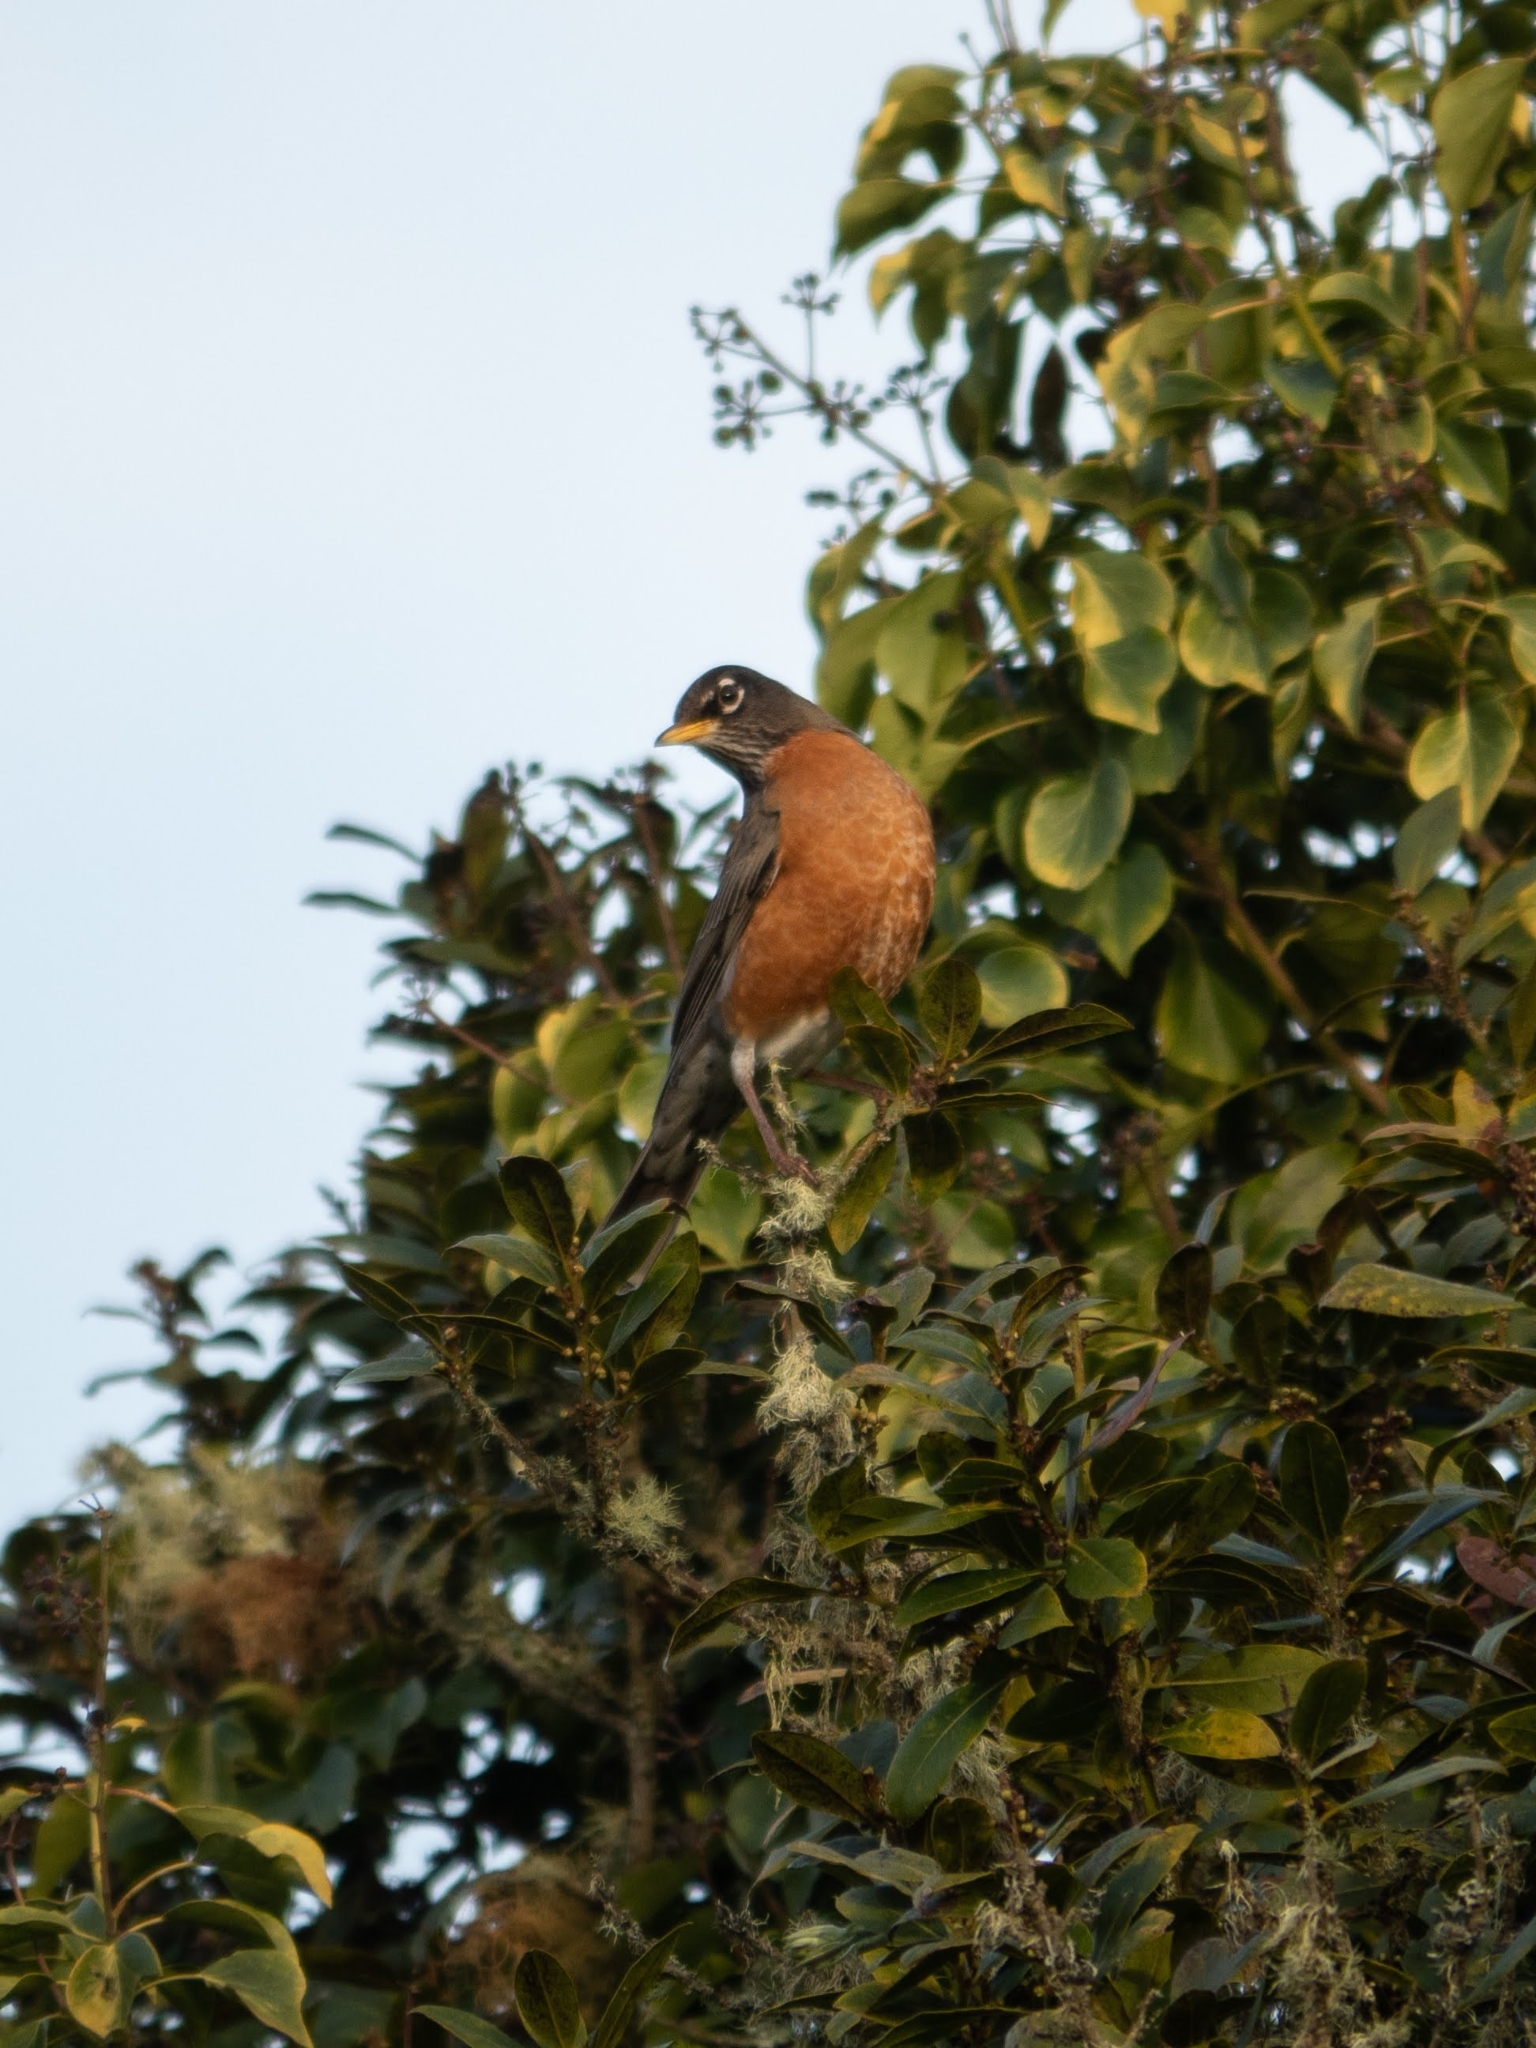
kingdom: Animalia
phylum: Chordata
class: Aves
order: Passeriformes
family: Turdidae
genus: Turdus
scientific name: Turdus migratorius
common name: American robin
